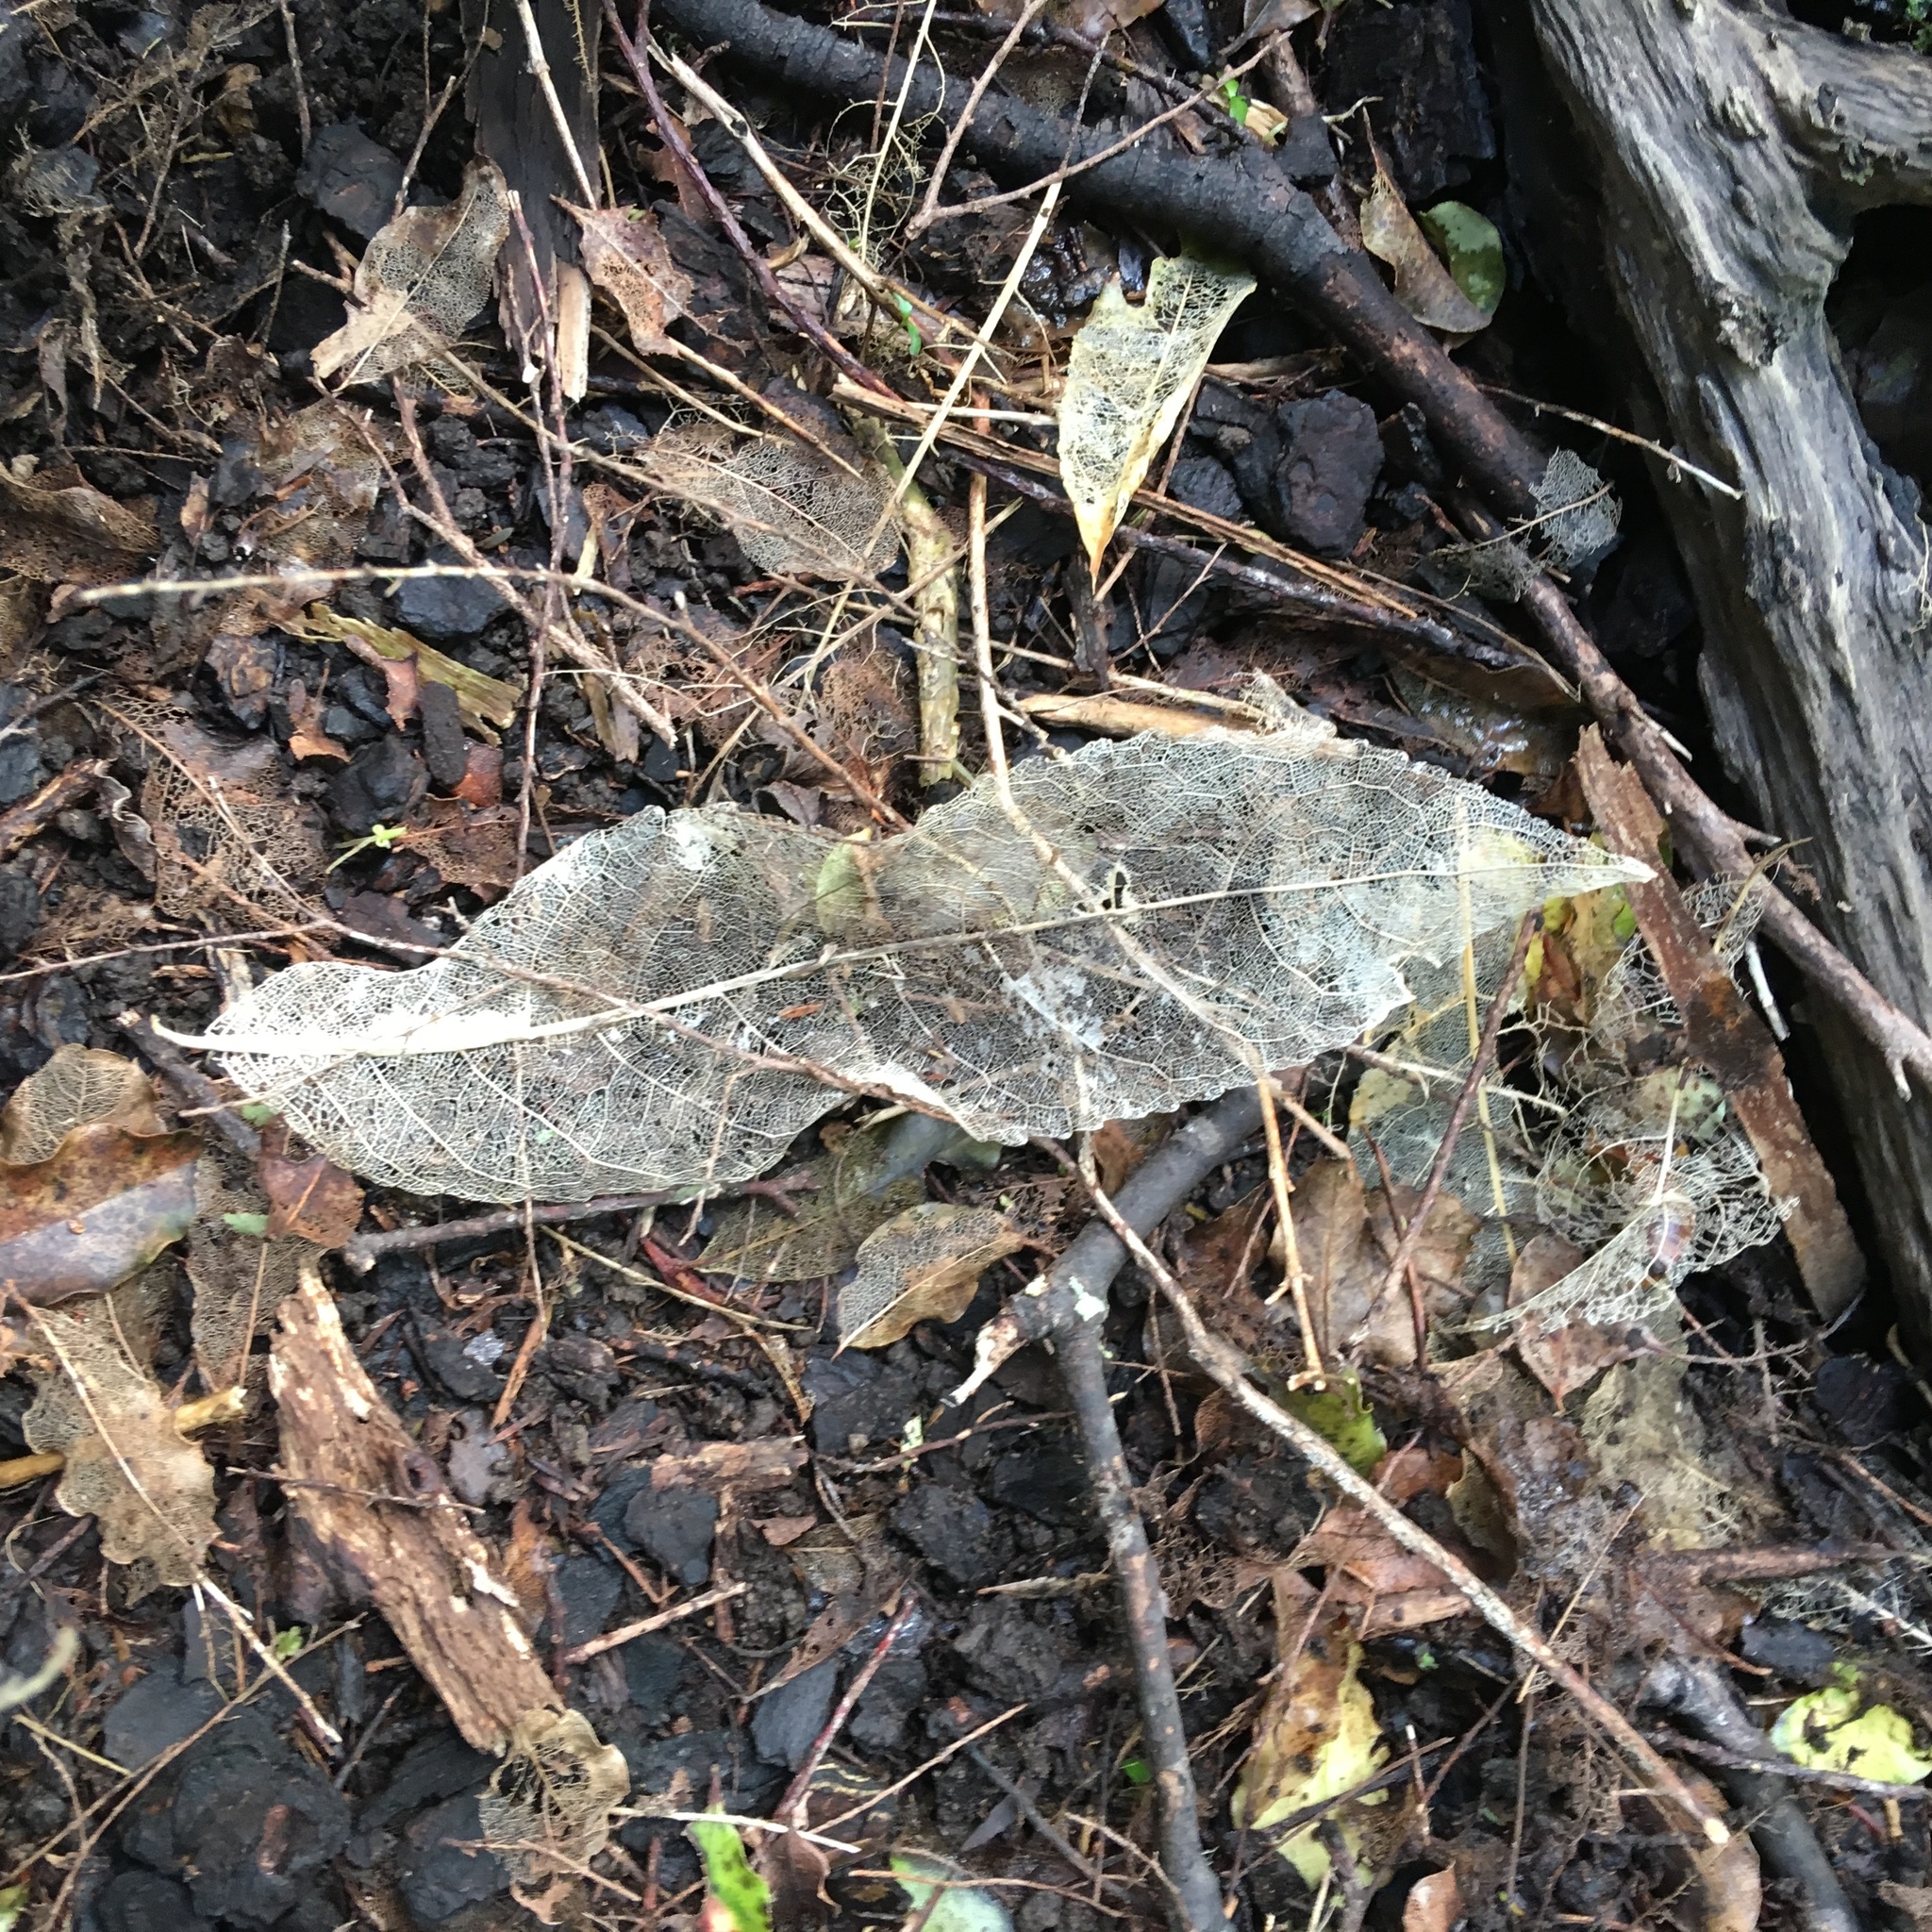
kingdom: Plantae
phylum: Tracheophyta
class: Magnoliopsida
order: Malpighiales
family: Violaceae
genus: Melicytus
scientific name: Melicytus ramiflorus
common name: Mahoe
